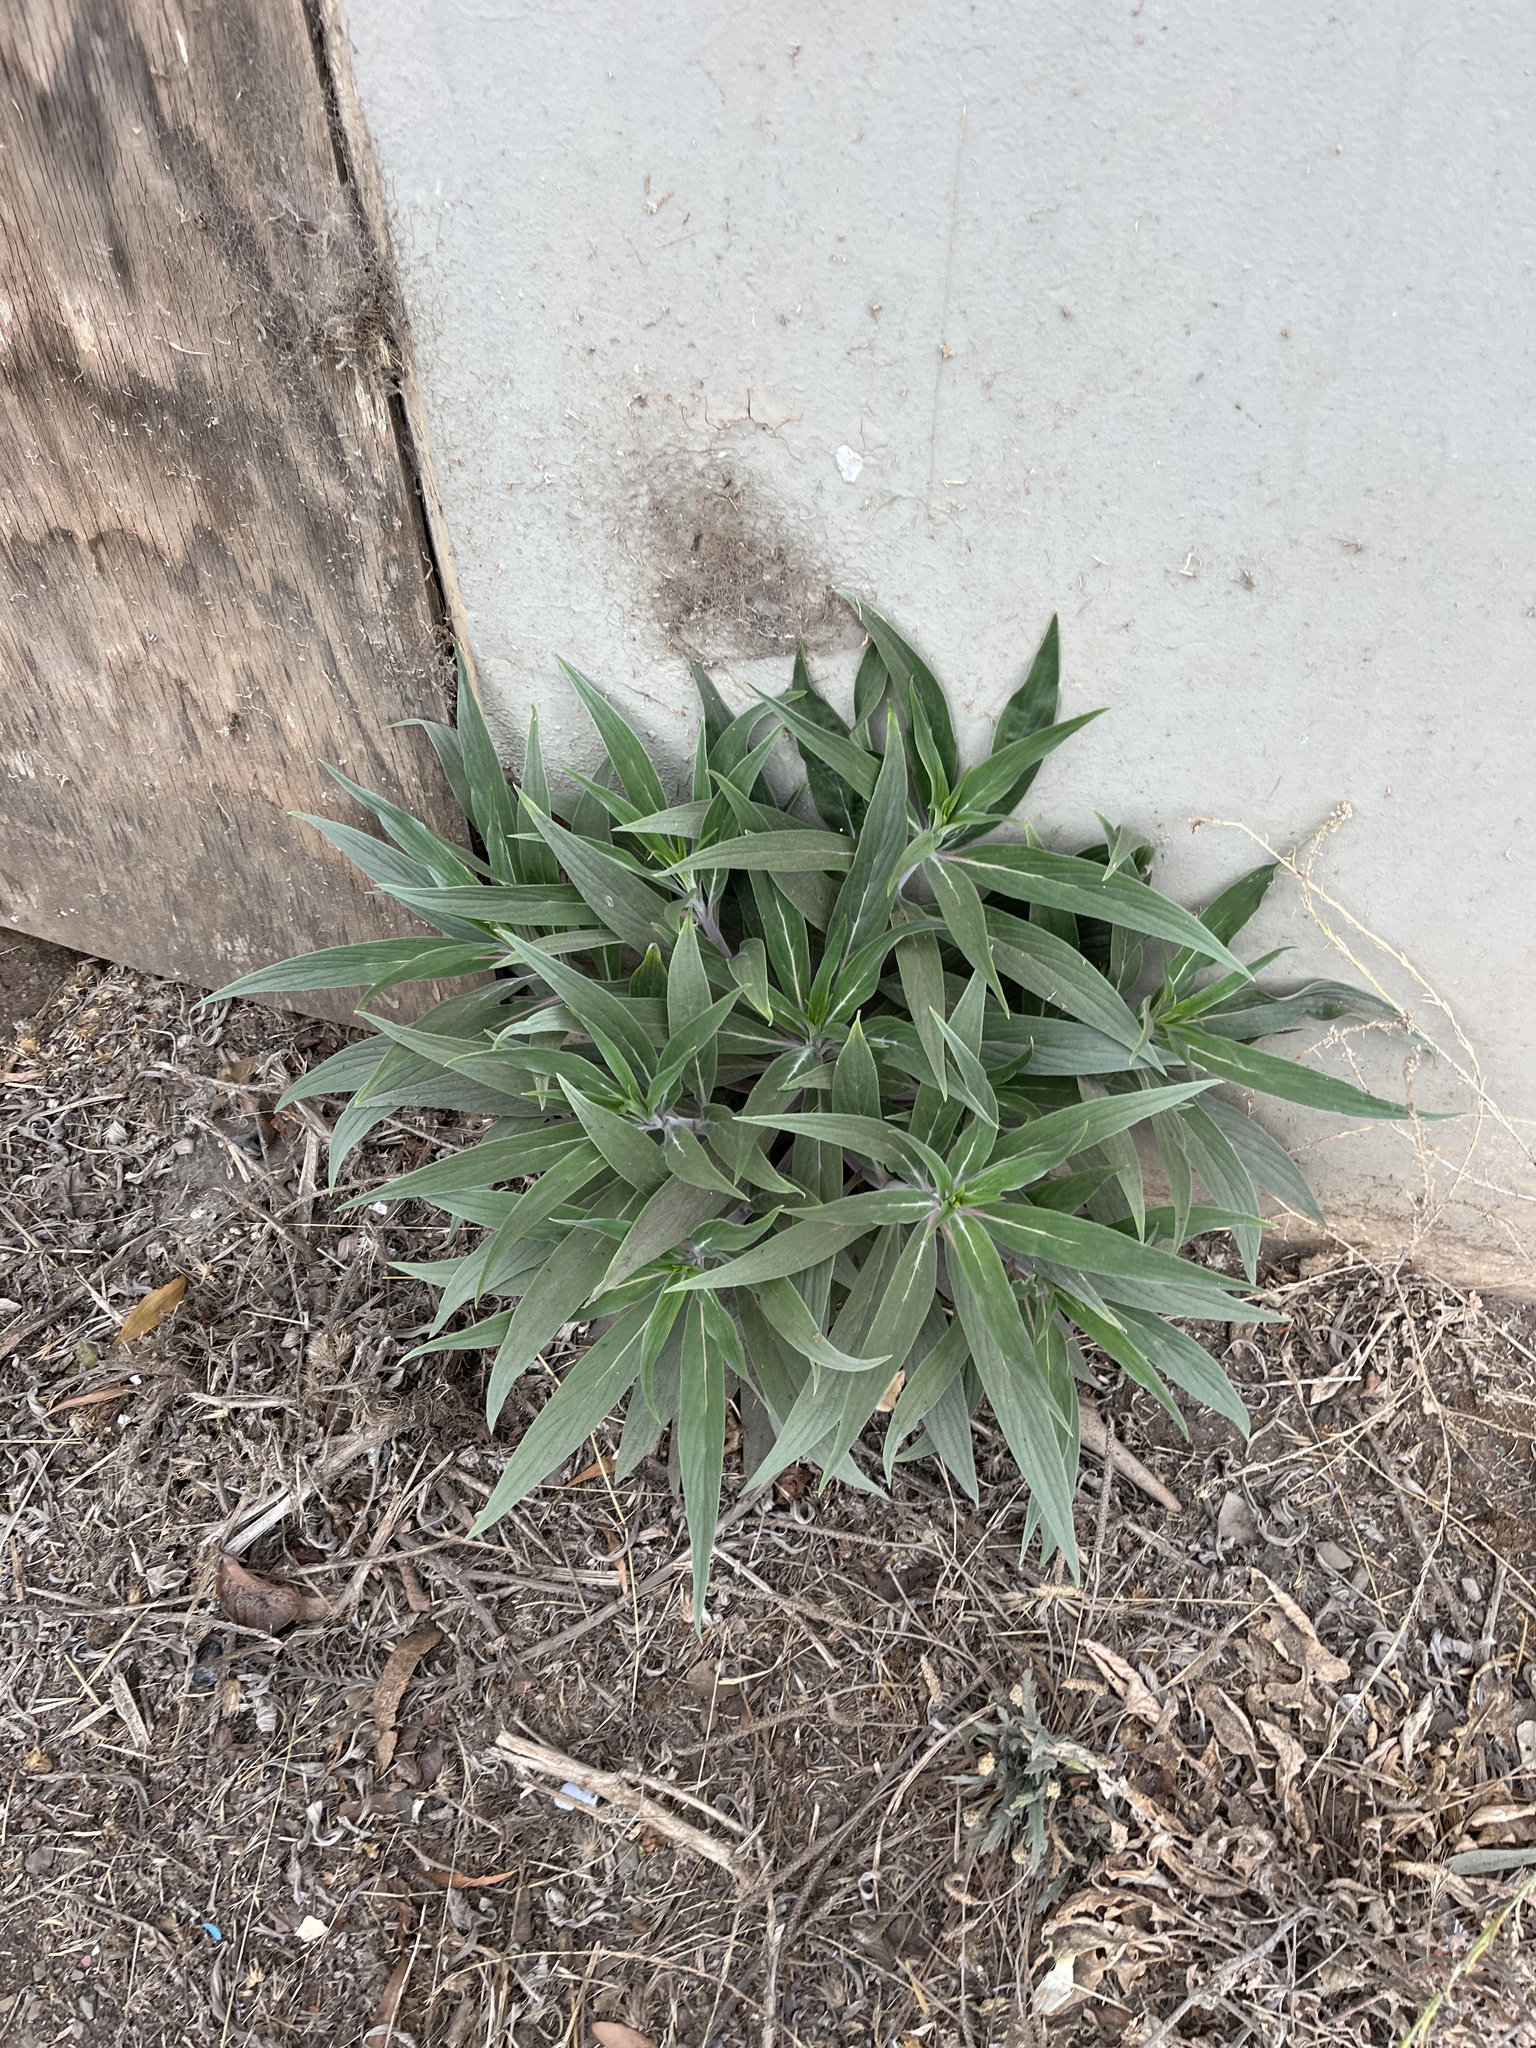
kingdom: Plantae
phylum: Tracheophyta
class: Magnoliopsida
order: Boraginales
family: Boraginaceae
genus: Echium
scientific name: Echium candicans
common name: Pride of madeira
